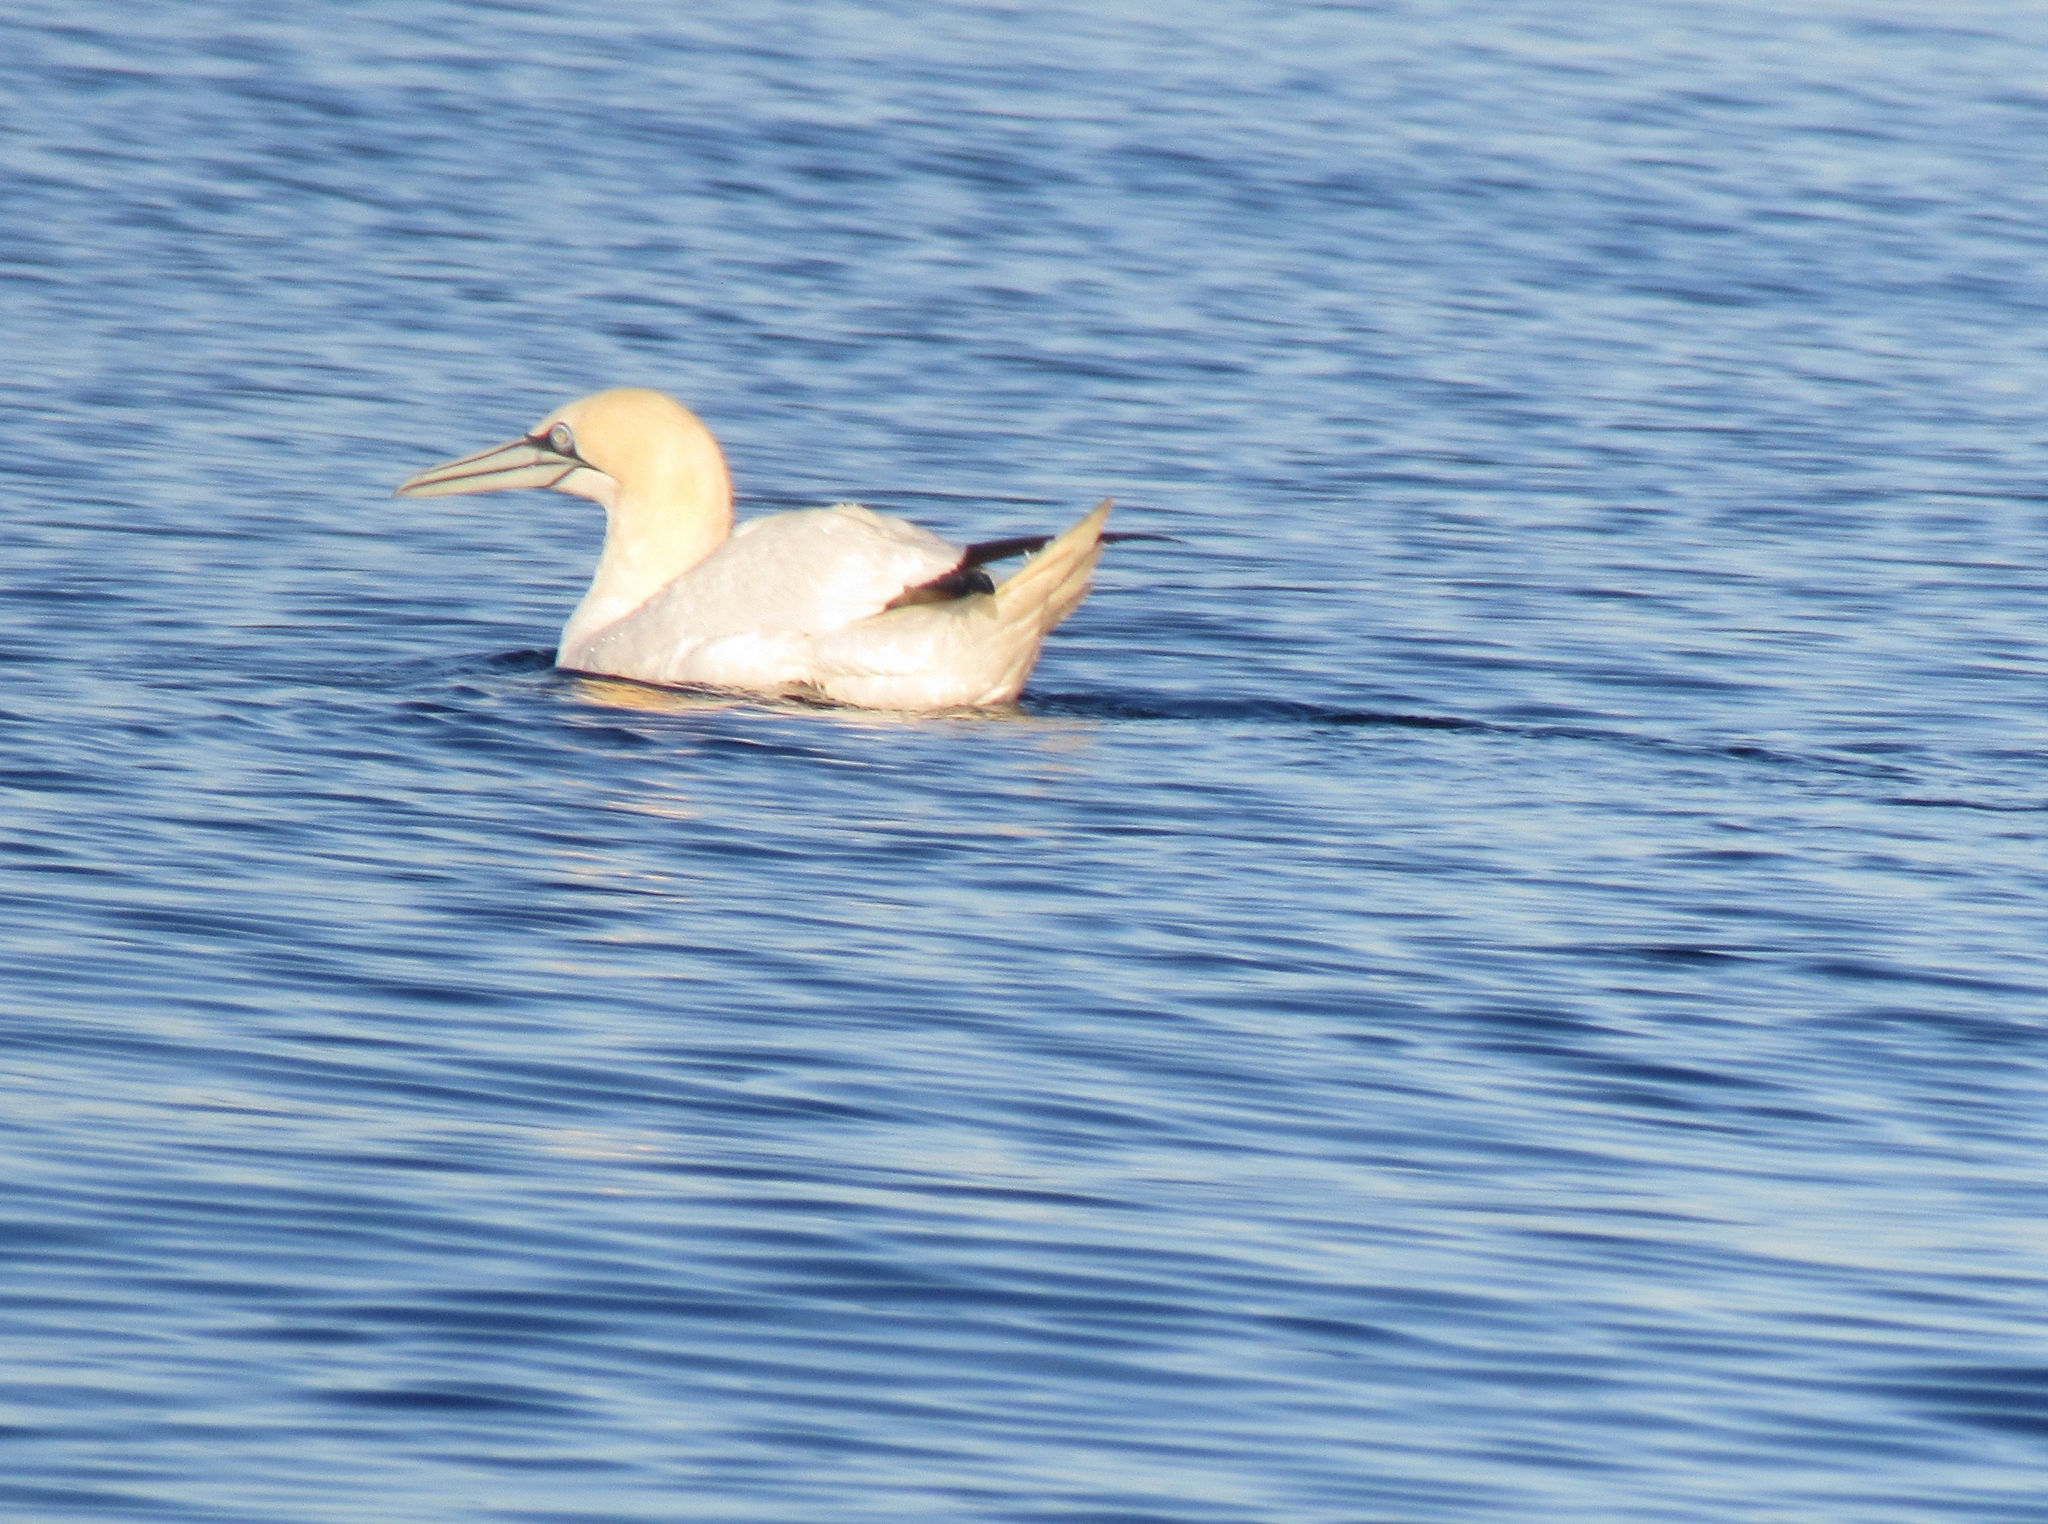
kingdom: Animalia
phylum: Chordata
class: Aves
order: Suliformes
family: Sulidae
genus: Morus
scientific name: Morus bassanus
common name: Northern gannet
